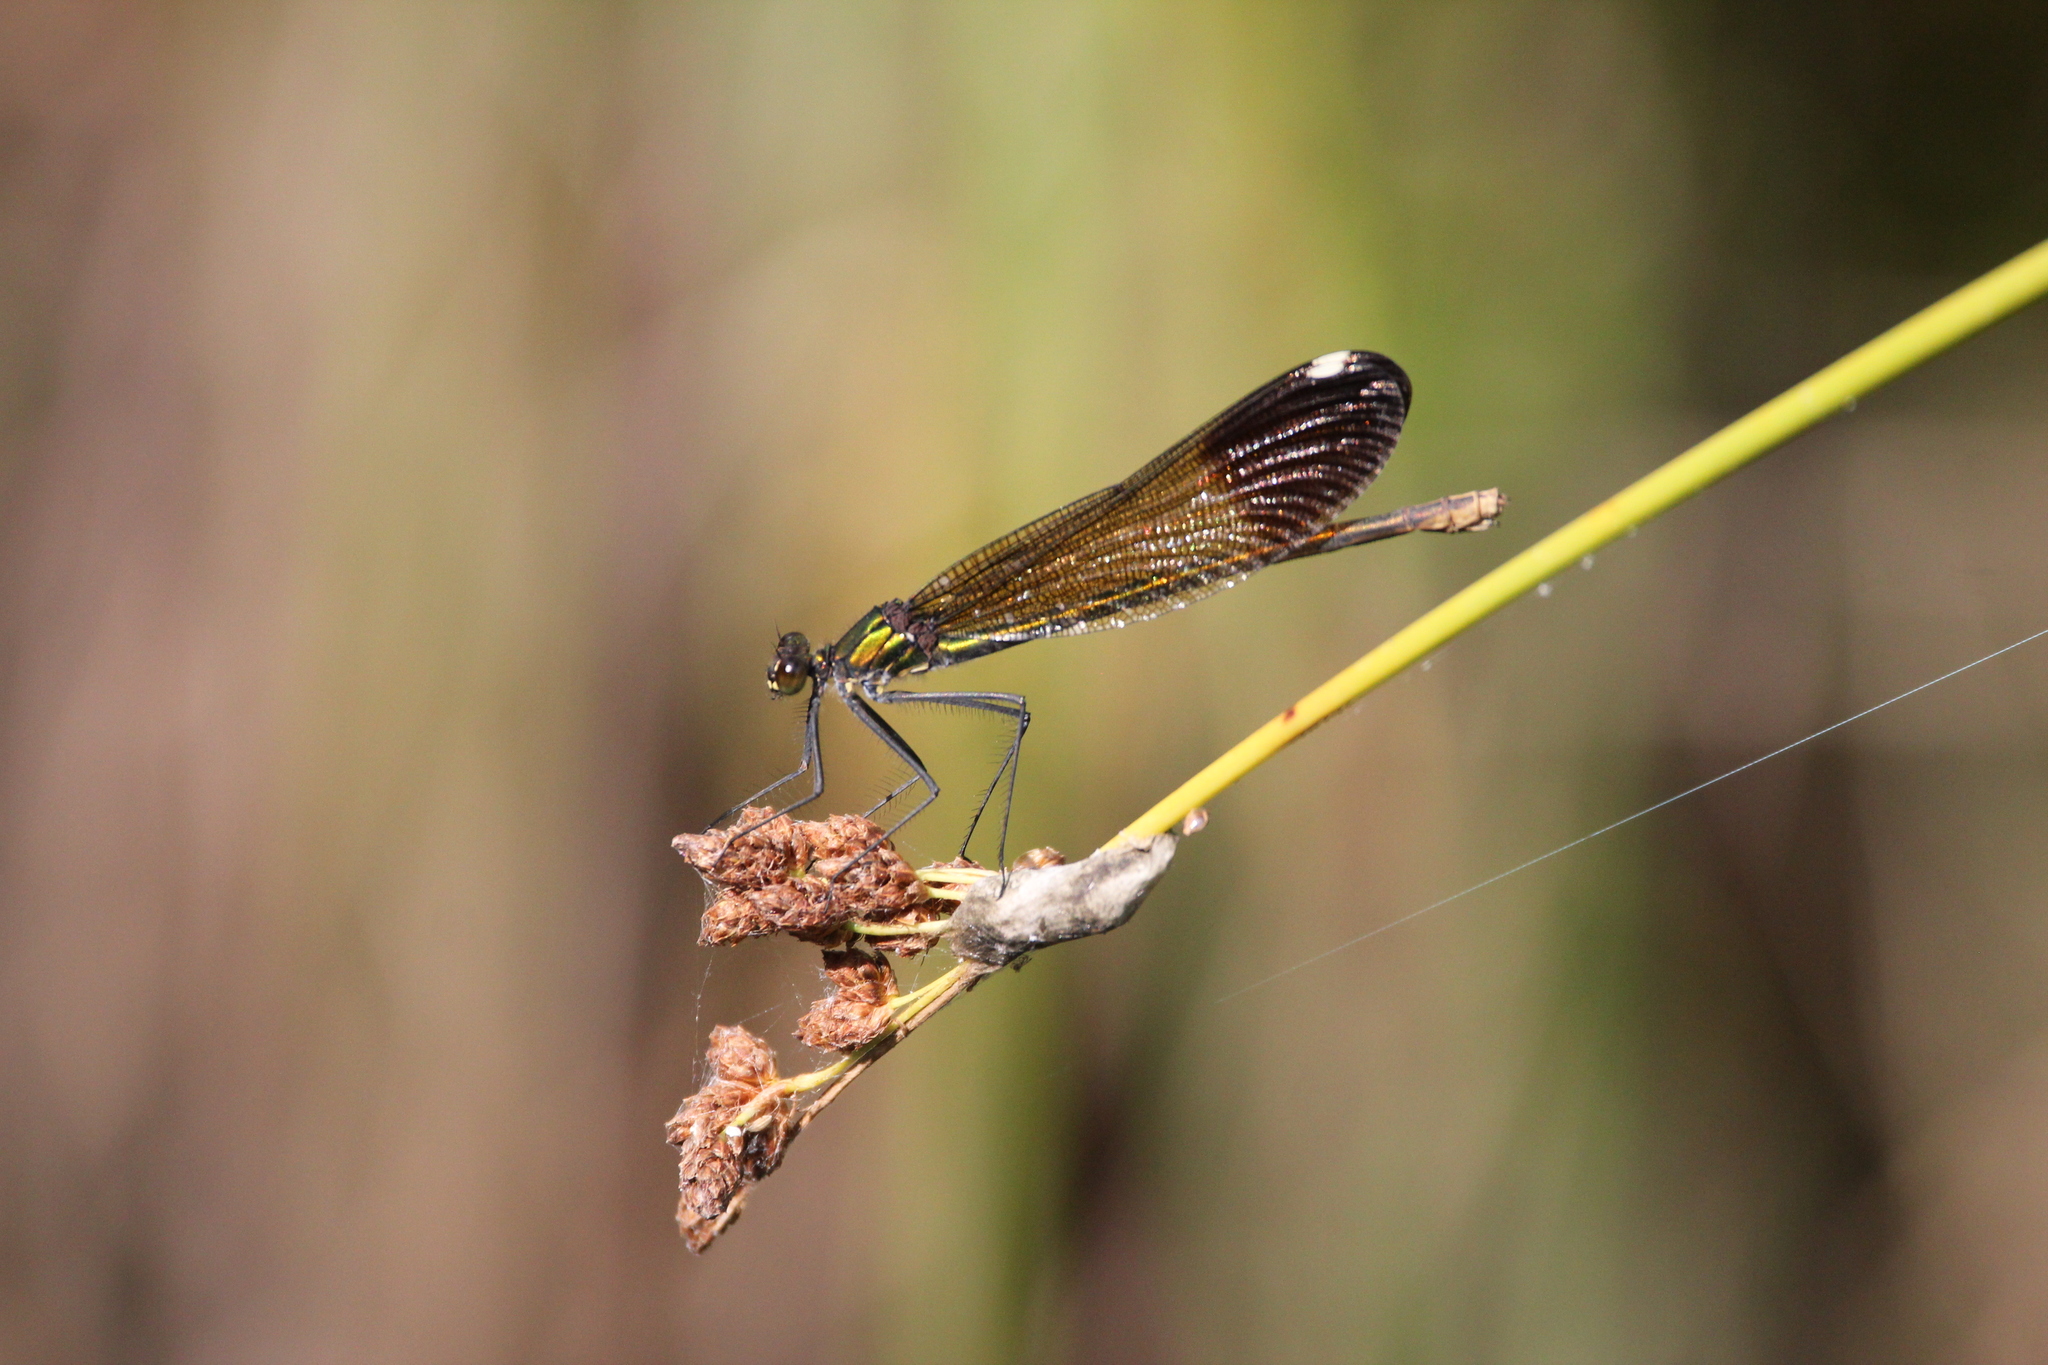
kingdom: Animalia
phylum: Arthropoda
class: Insecta
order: Odonata
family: Calopterygidae
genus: Calopteryx
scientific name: Calopteryx aequabilis
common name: River jewelwing
